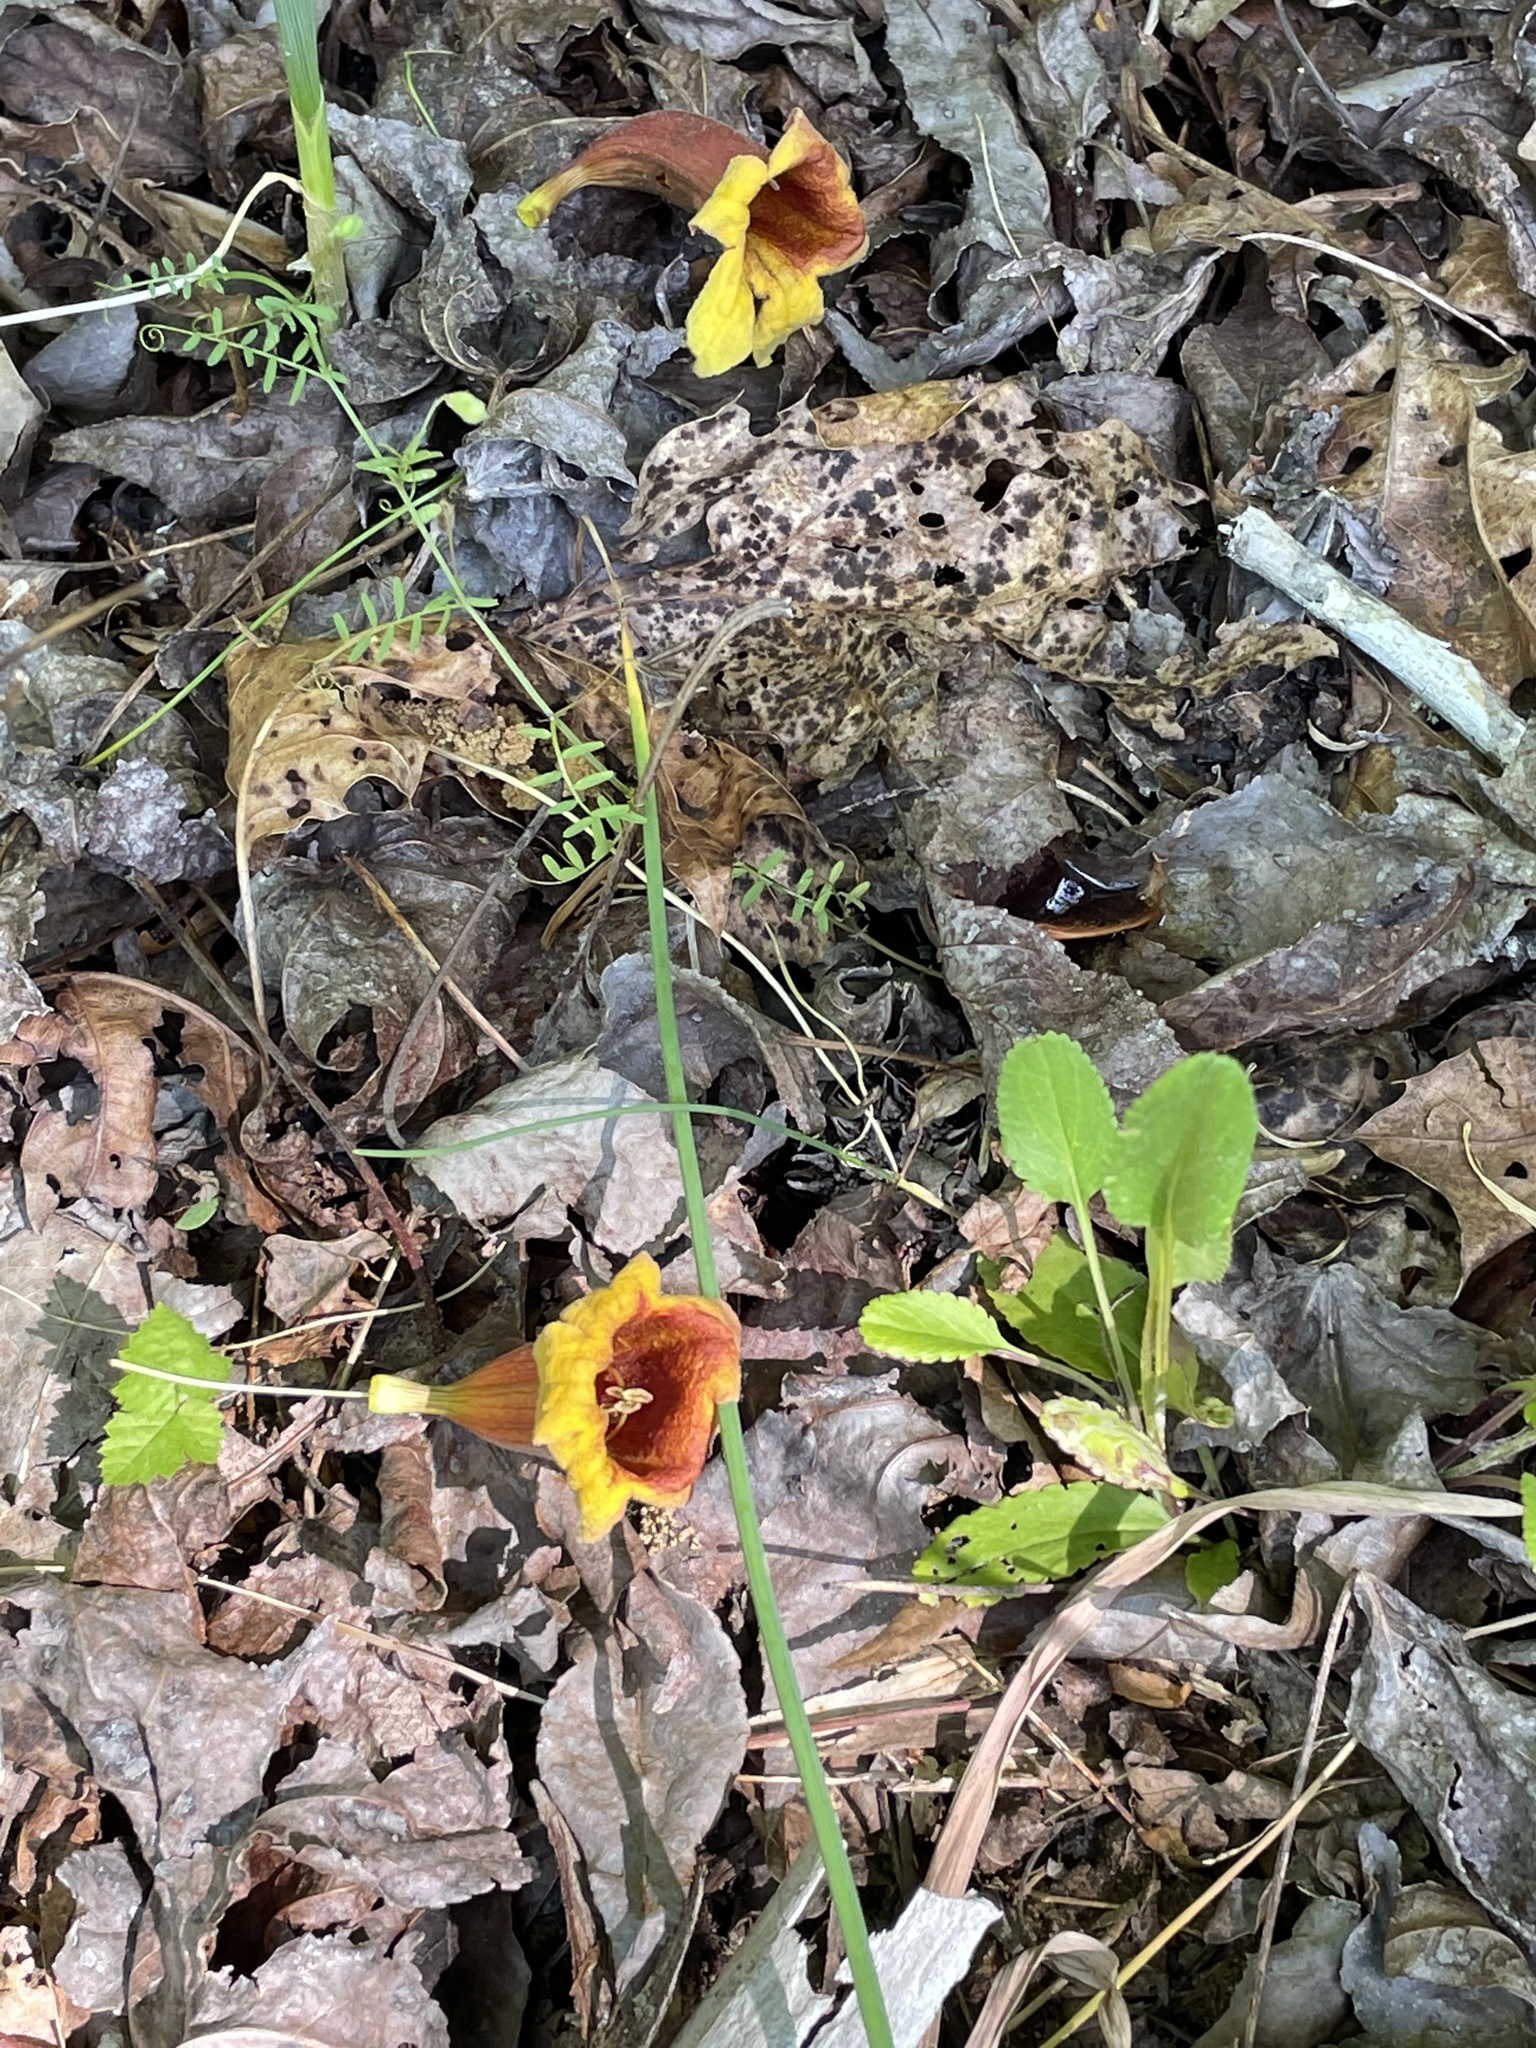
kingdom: Plantae
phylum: Tracheophyta
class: Magnoliopsida
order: Lamiales
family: Bignoniaceae
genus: Bignonia
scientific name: Bignonia capreolata
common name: Crossvine
